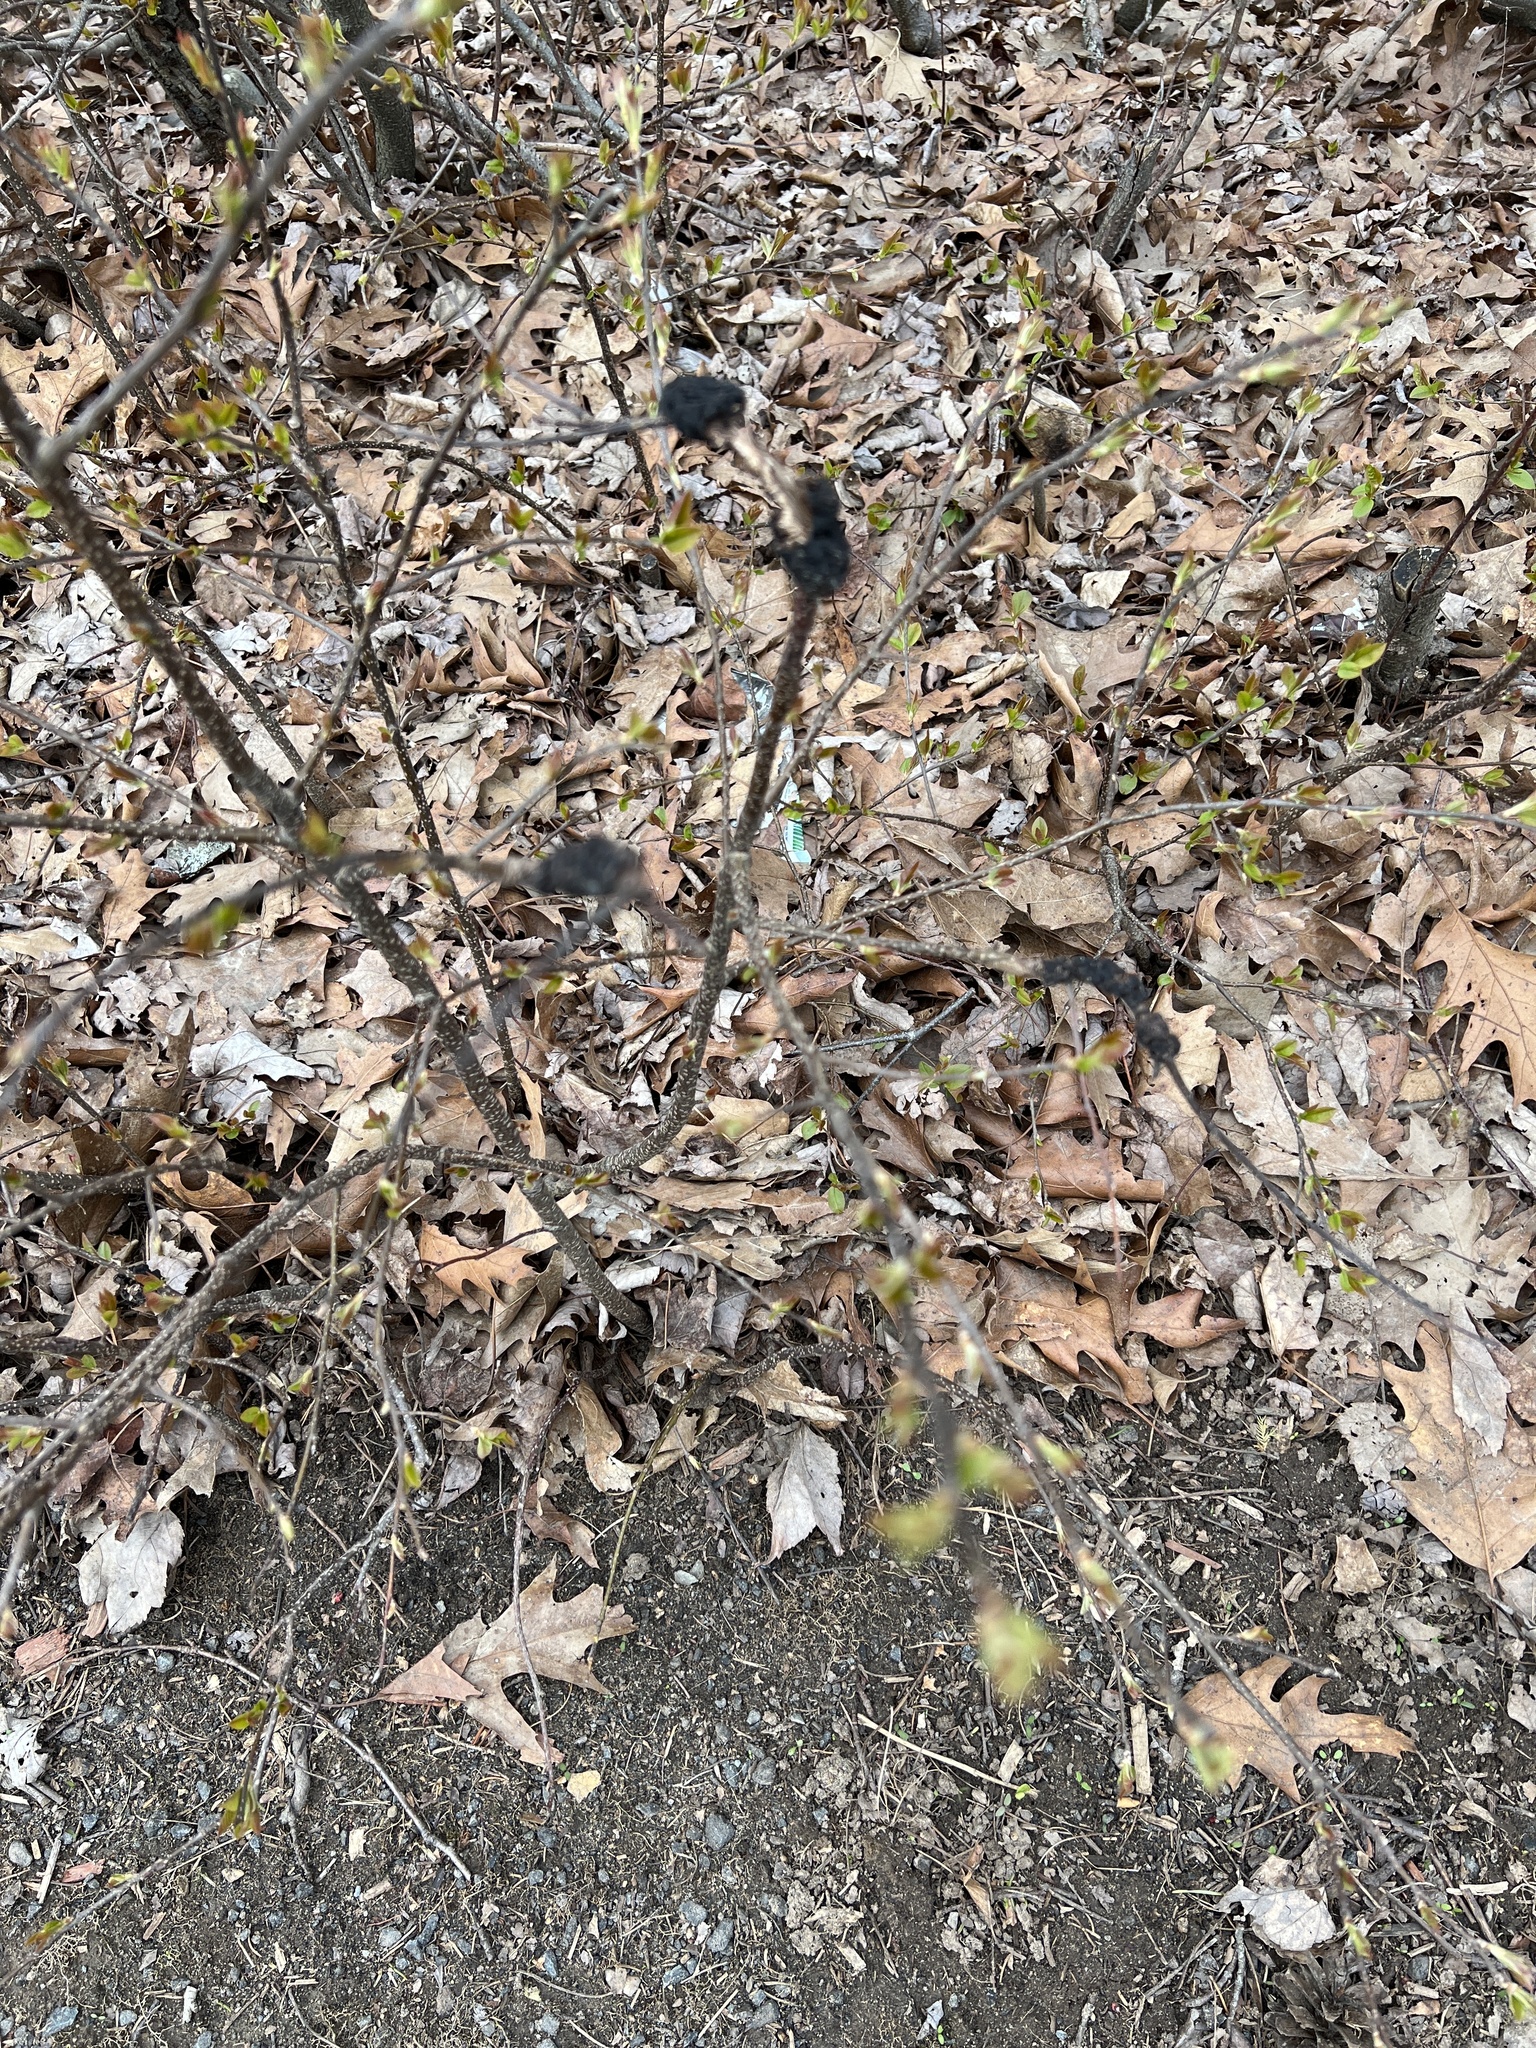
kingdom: Fungi
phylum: Ascomycota
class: Dothideomycetes
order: Venturiales
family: Venturiaceae
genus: Apiosporina
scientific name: Apiosporina morbosa
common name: Black knot
